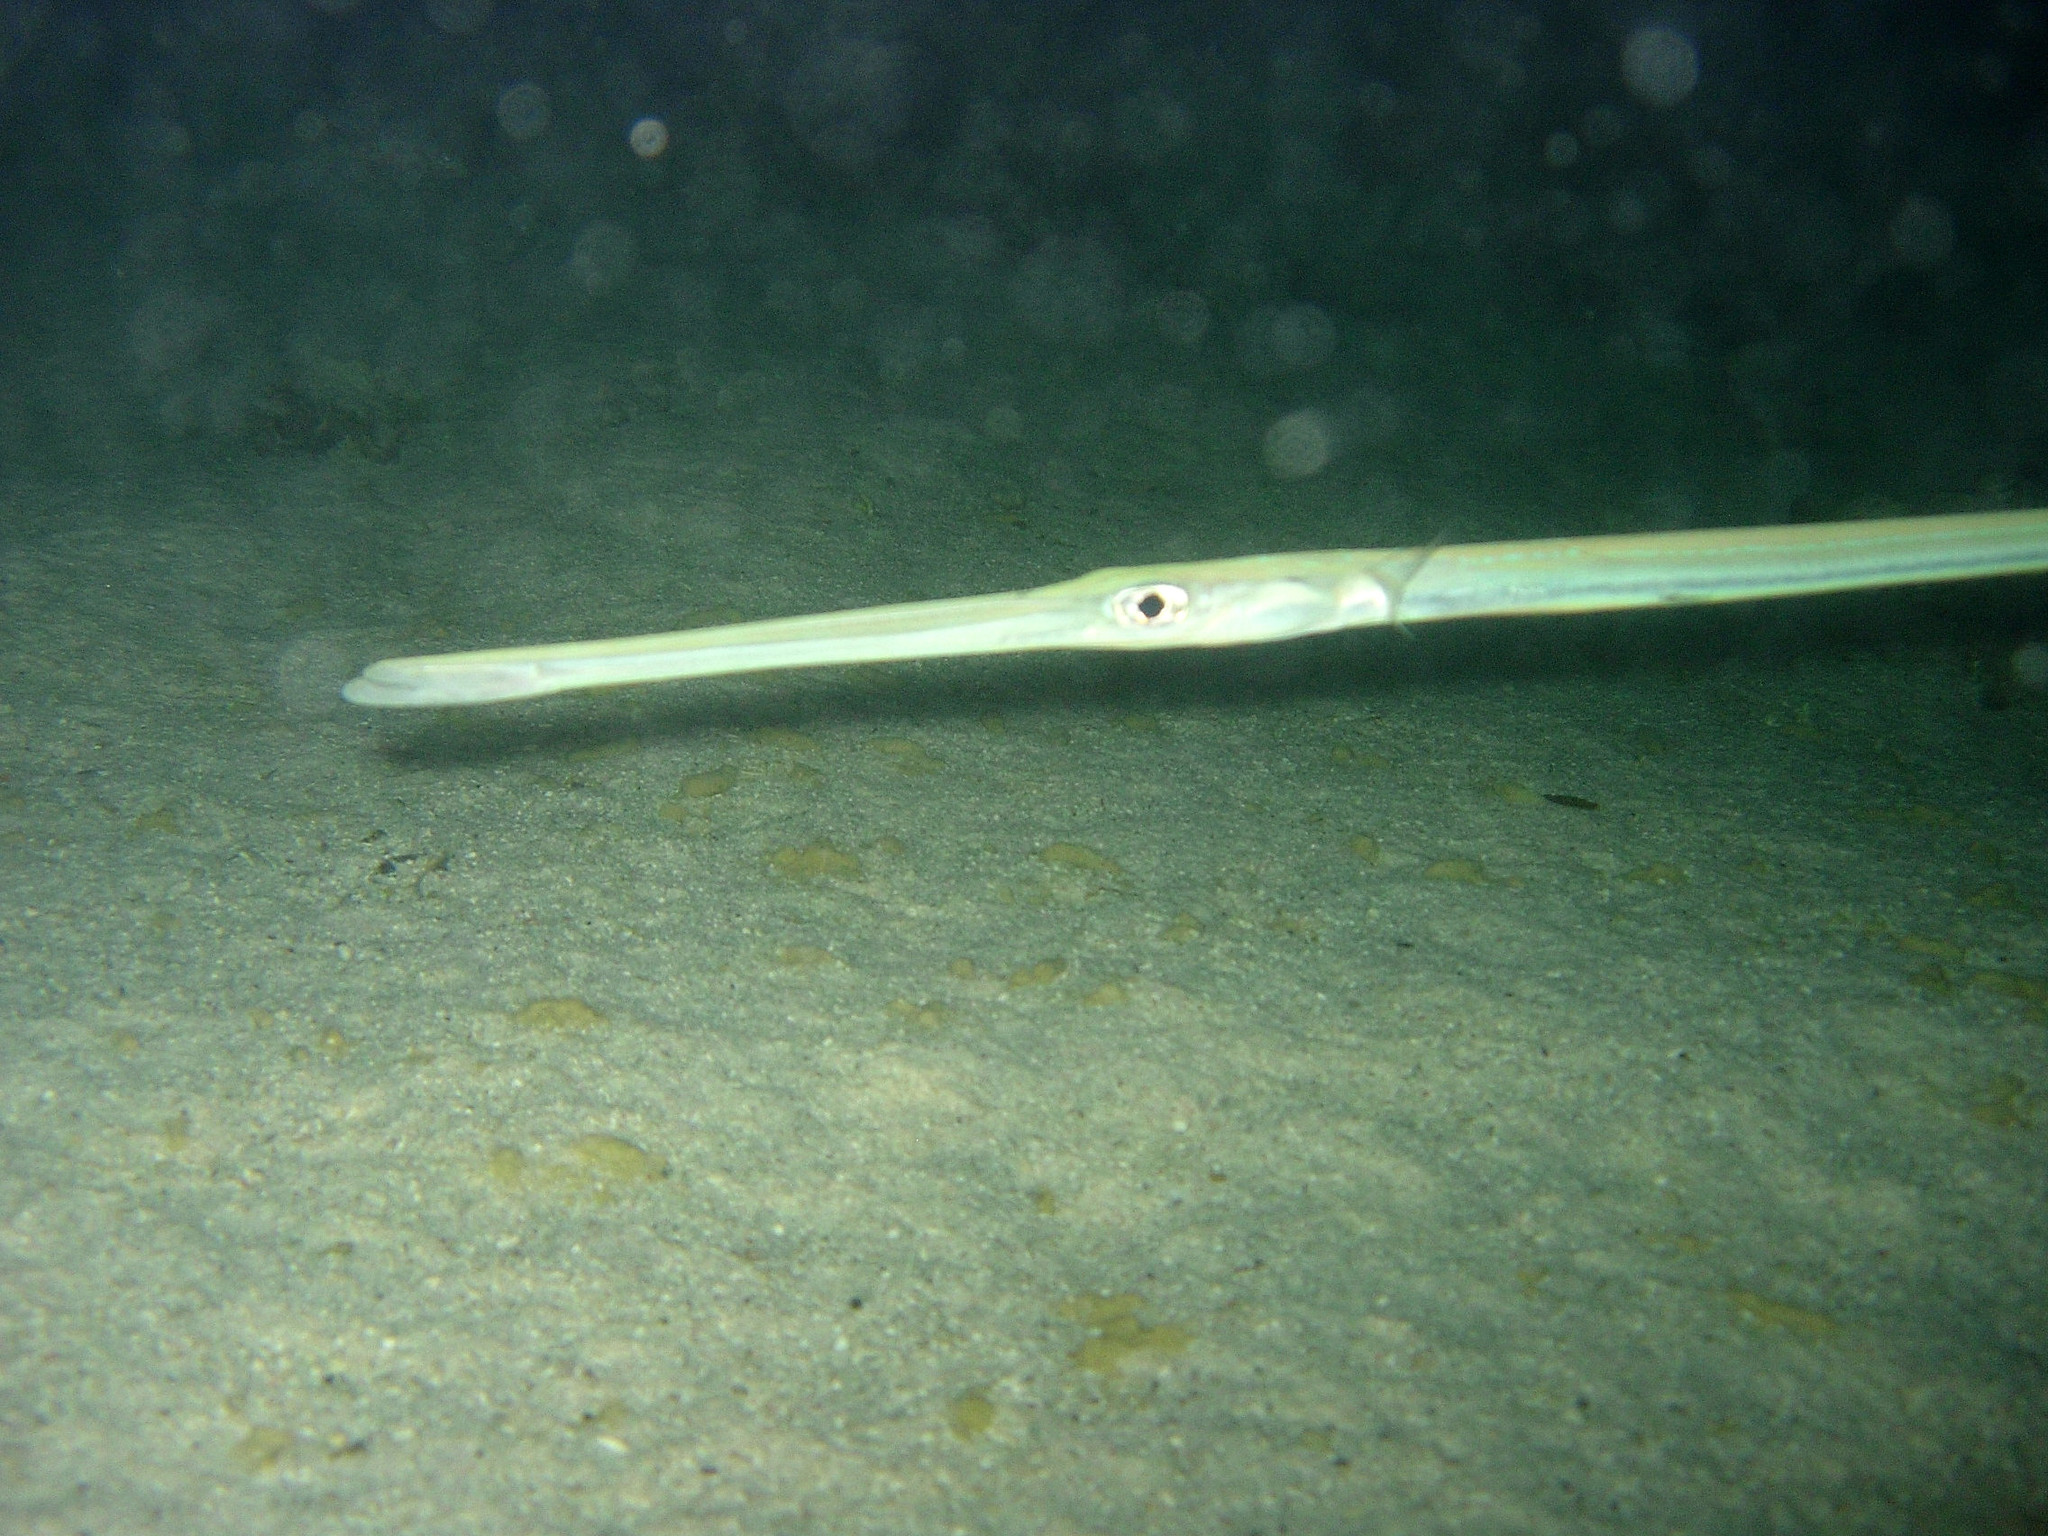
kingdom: Animalia
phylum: Chordata
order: Syngnathiformes
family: Fistulariidae
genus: Fistularia
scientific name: Fistularia commersonii
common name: Bluespotted cornetfish
